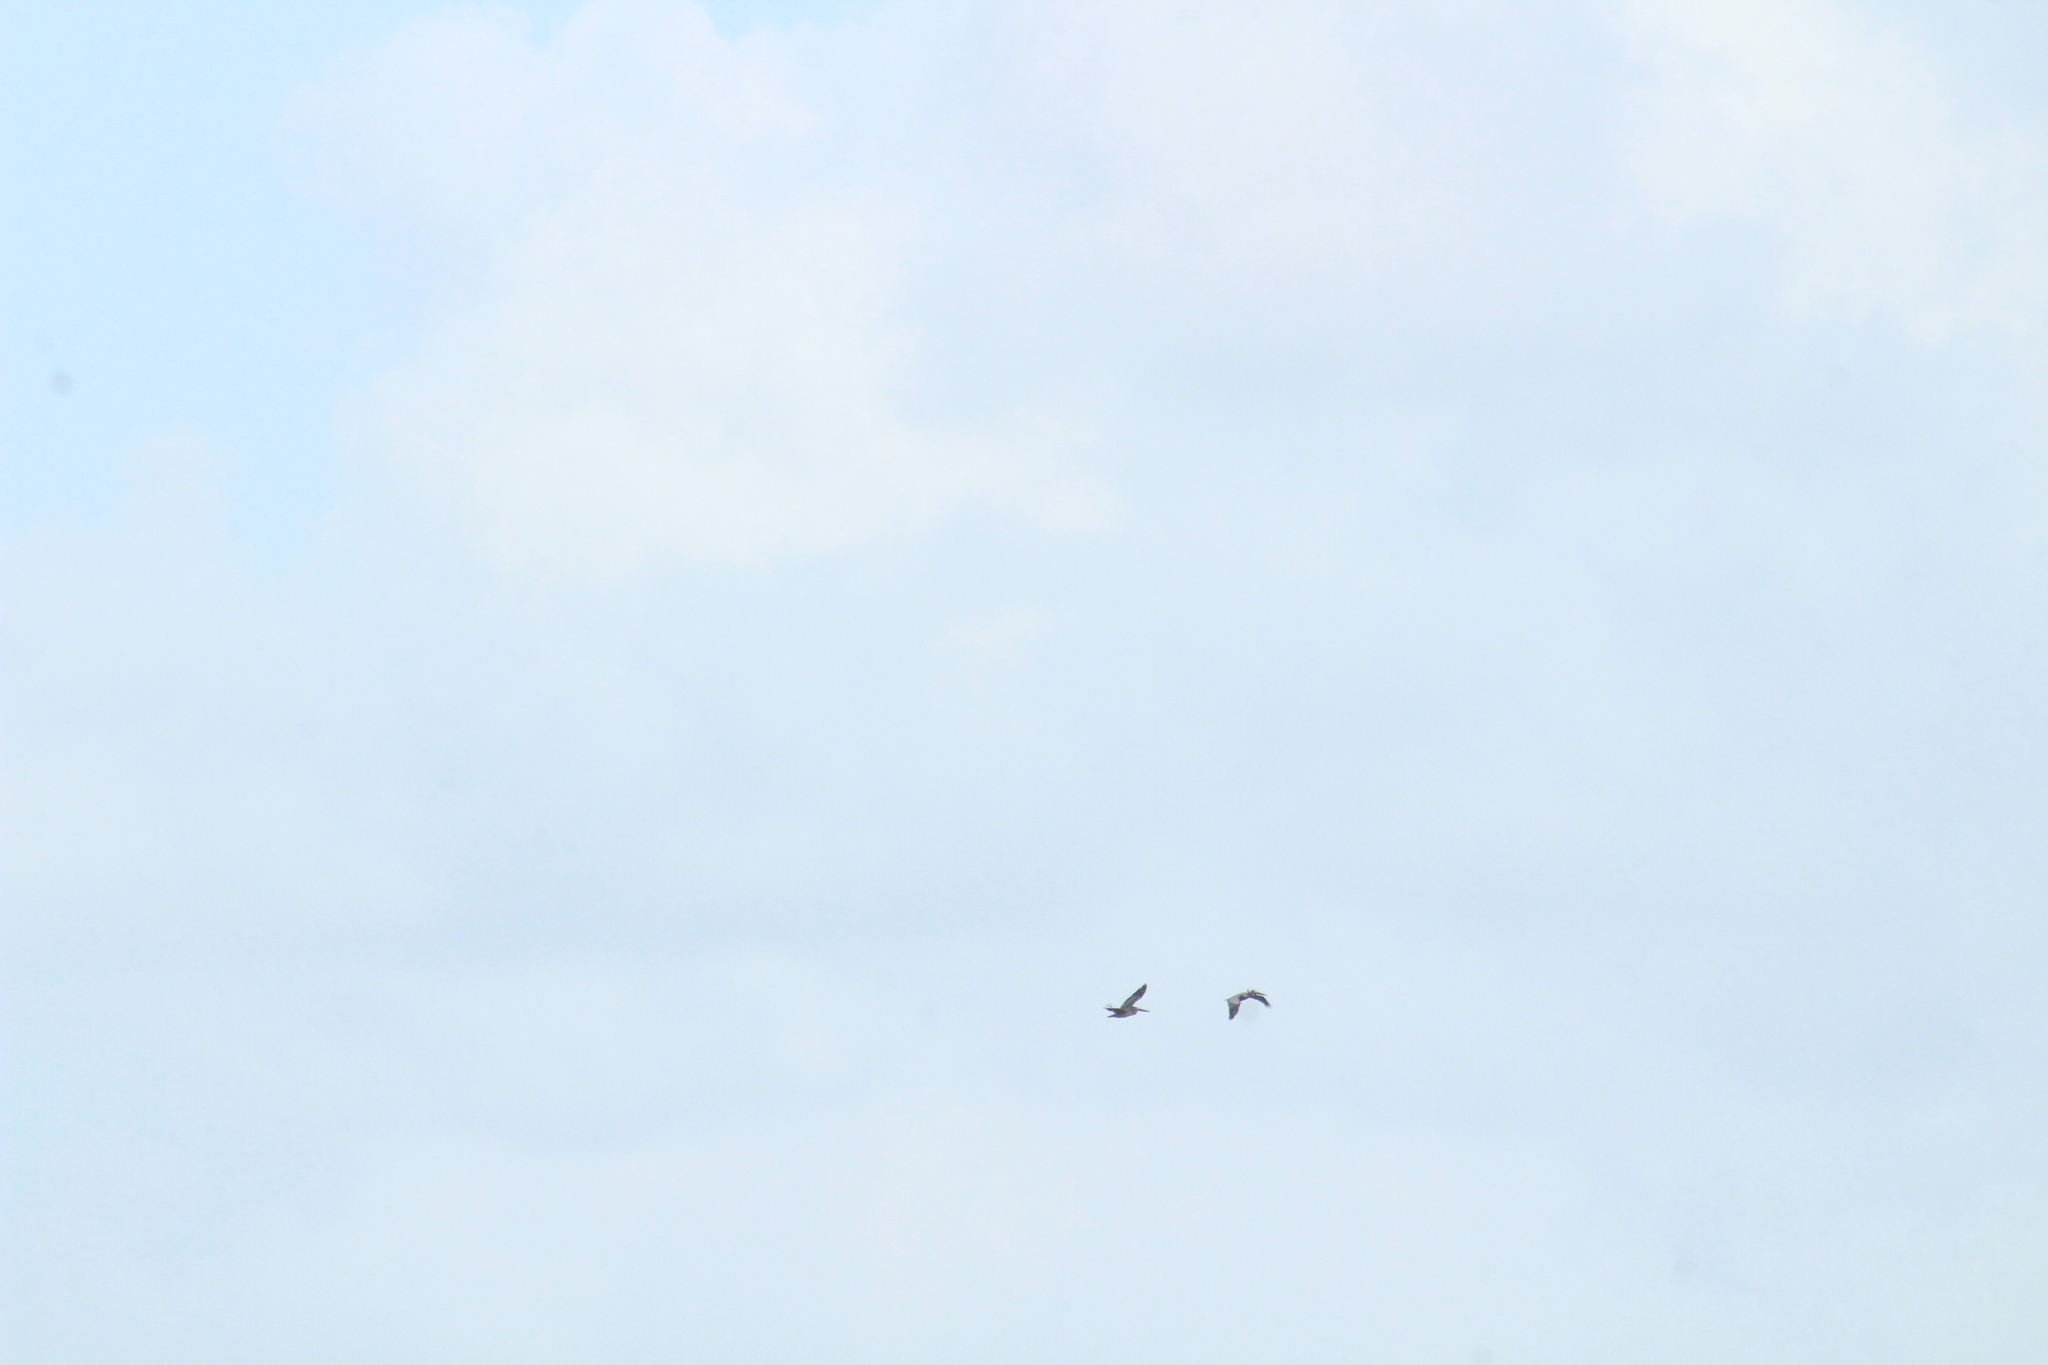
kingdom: Animalia
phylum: Chordata
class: Aves
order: Pelecaniformes
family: Pelecanidae
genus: Pelecanus
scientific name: Pelecanus occidentalis
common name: Brown pelican
